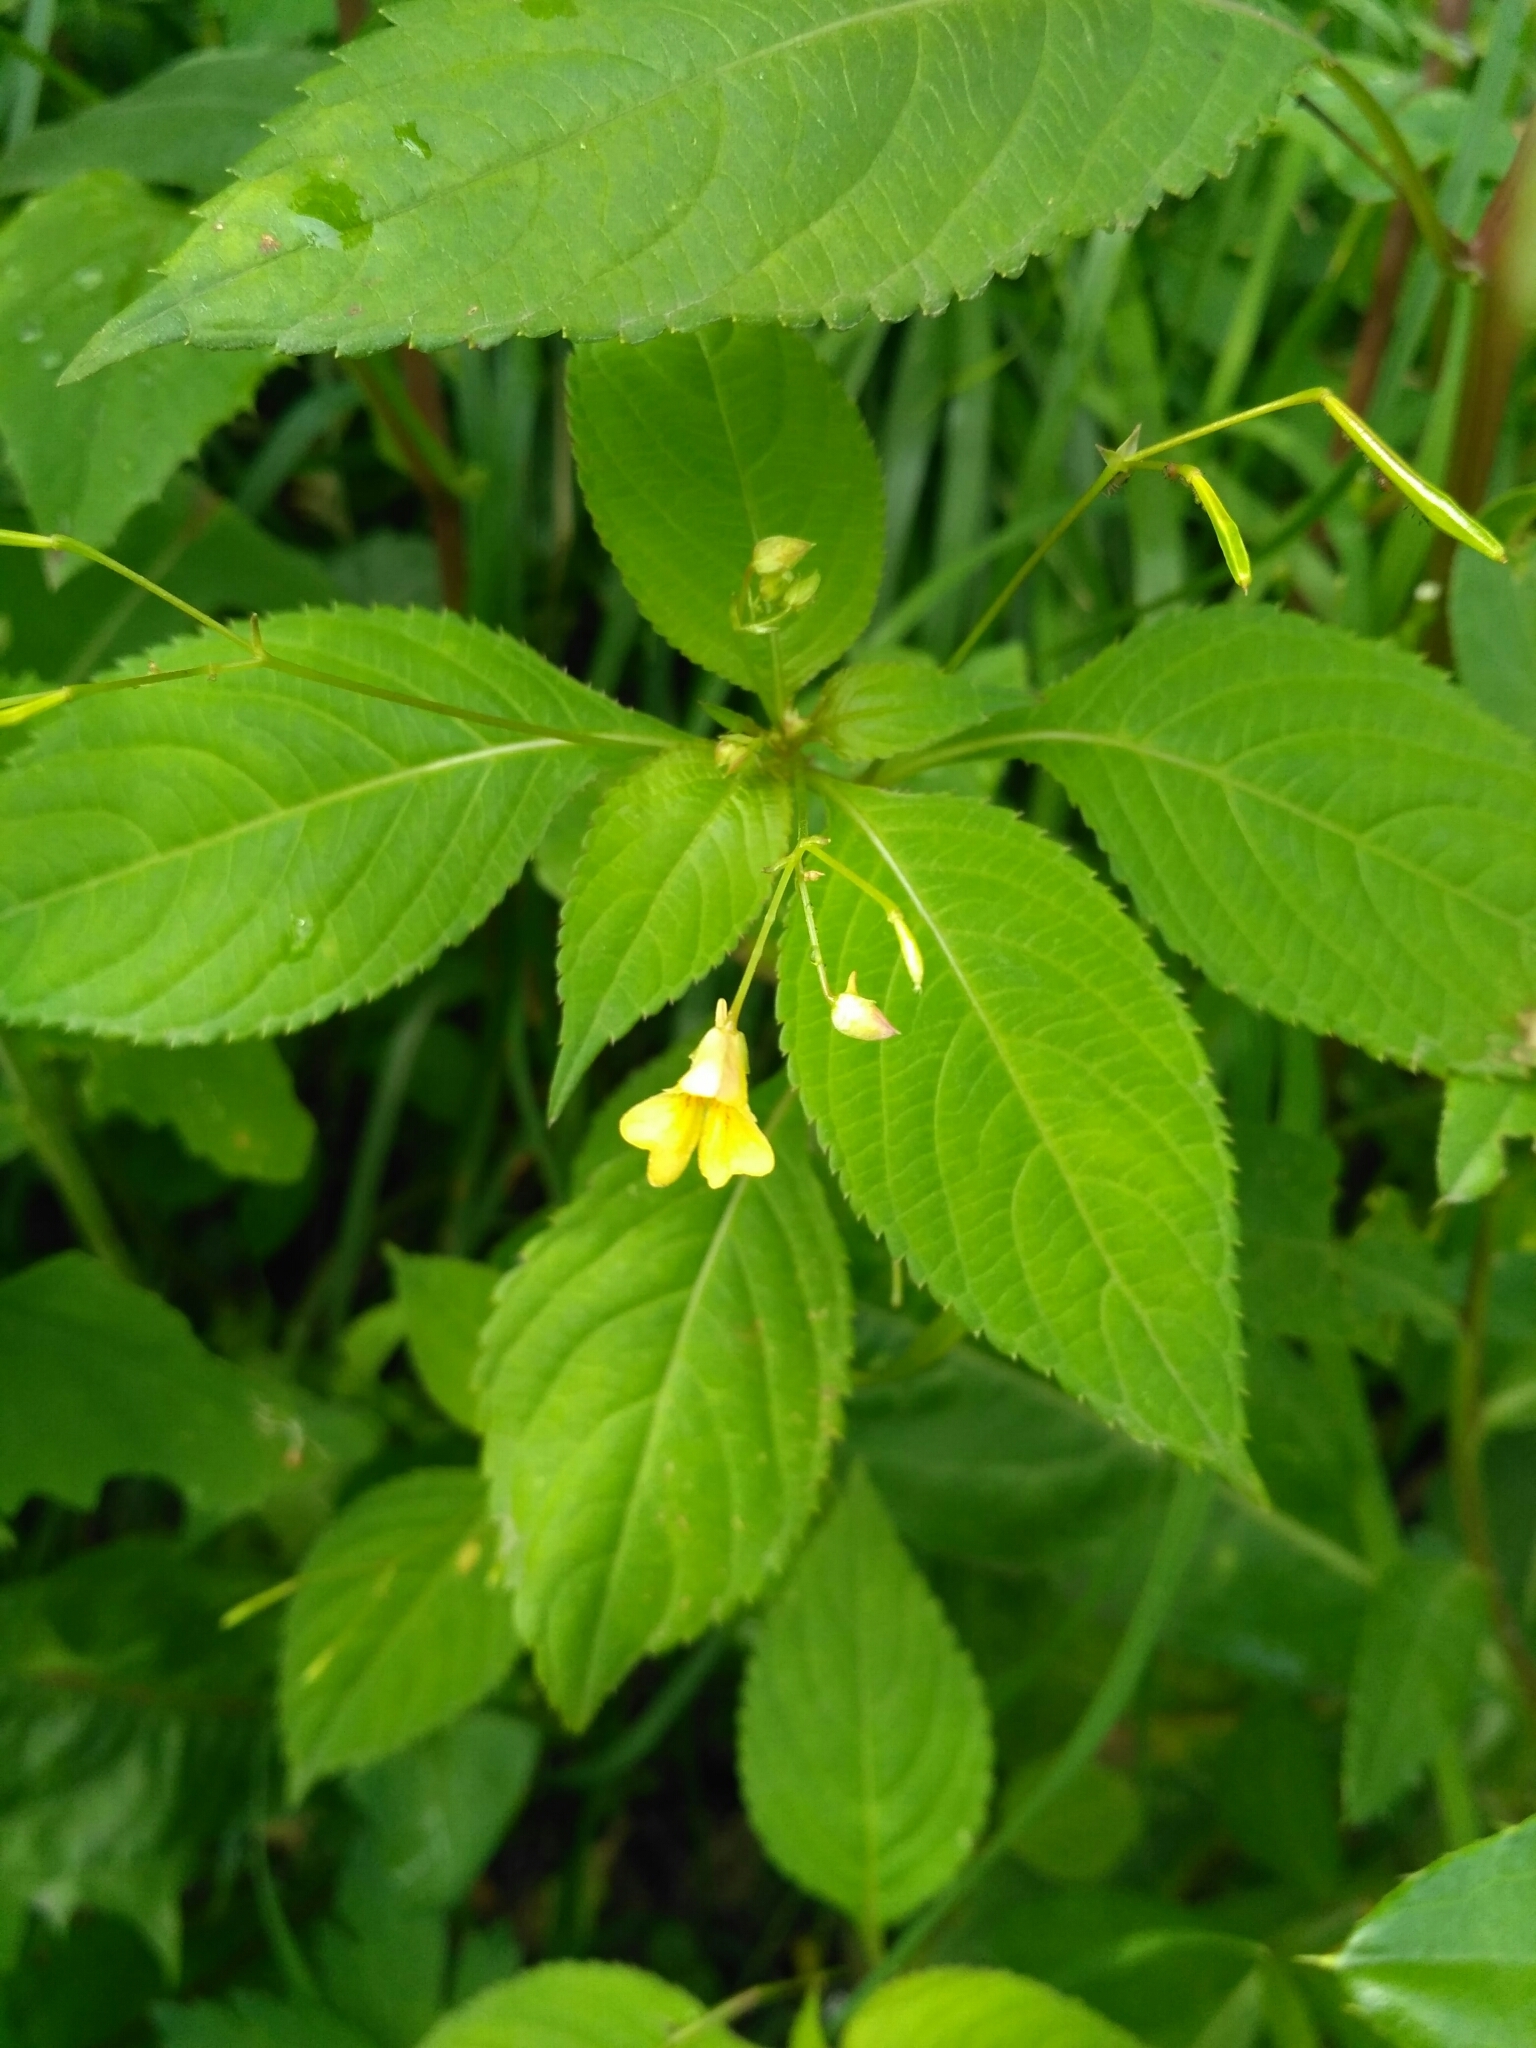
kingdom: Plantae
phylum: Tracheophyta
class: Magnoliopsida
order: Ericales
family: Balsaminaceae
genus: Impatiens
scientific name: Impatiens parviflora
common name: Small balsam
